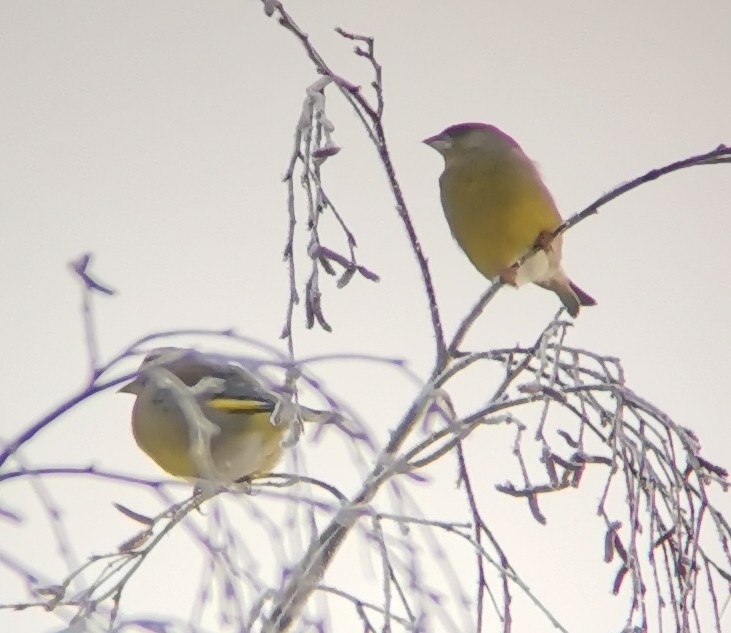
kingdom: Plantae
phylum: Tracheophyta
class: Liliopsida
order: Poales
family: Poaceae
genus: Chloris
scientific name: Chloris chloris
